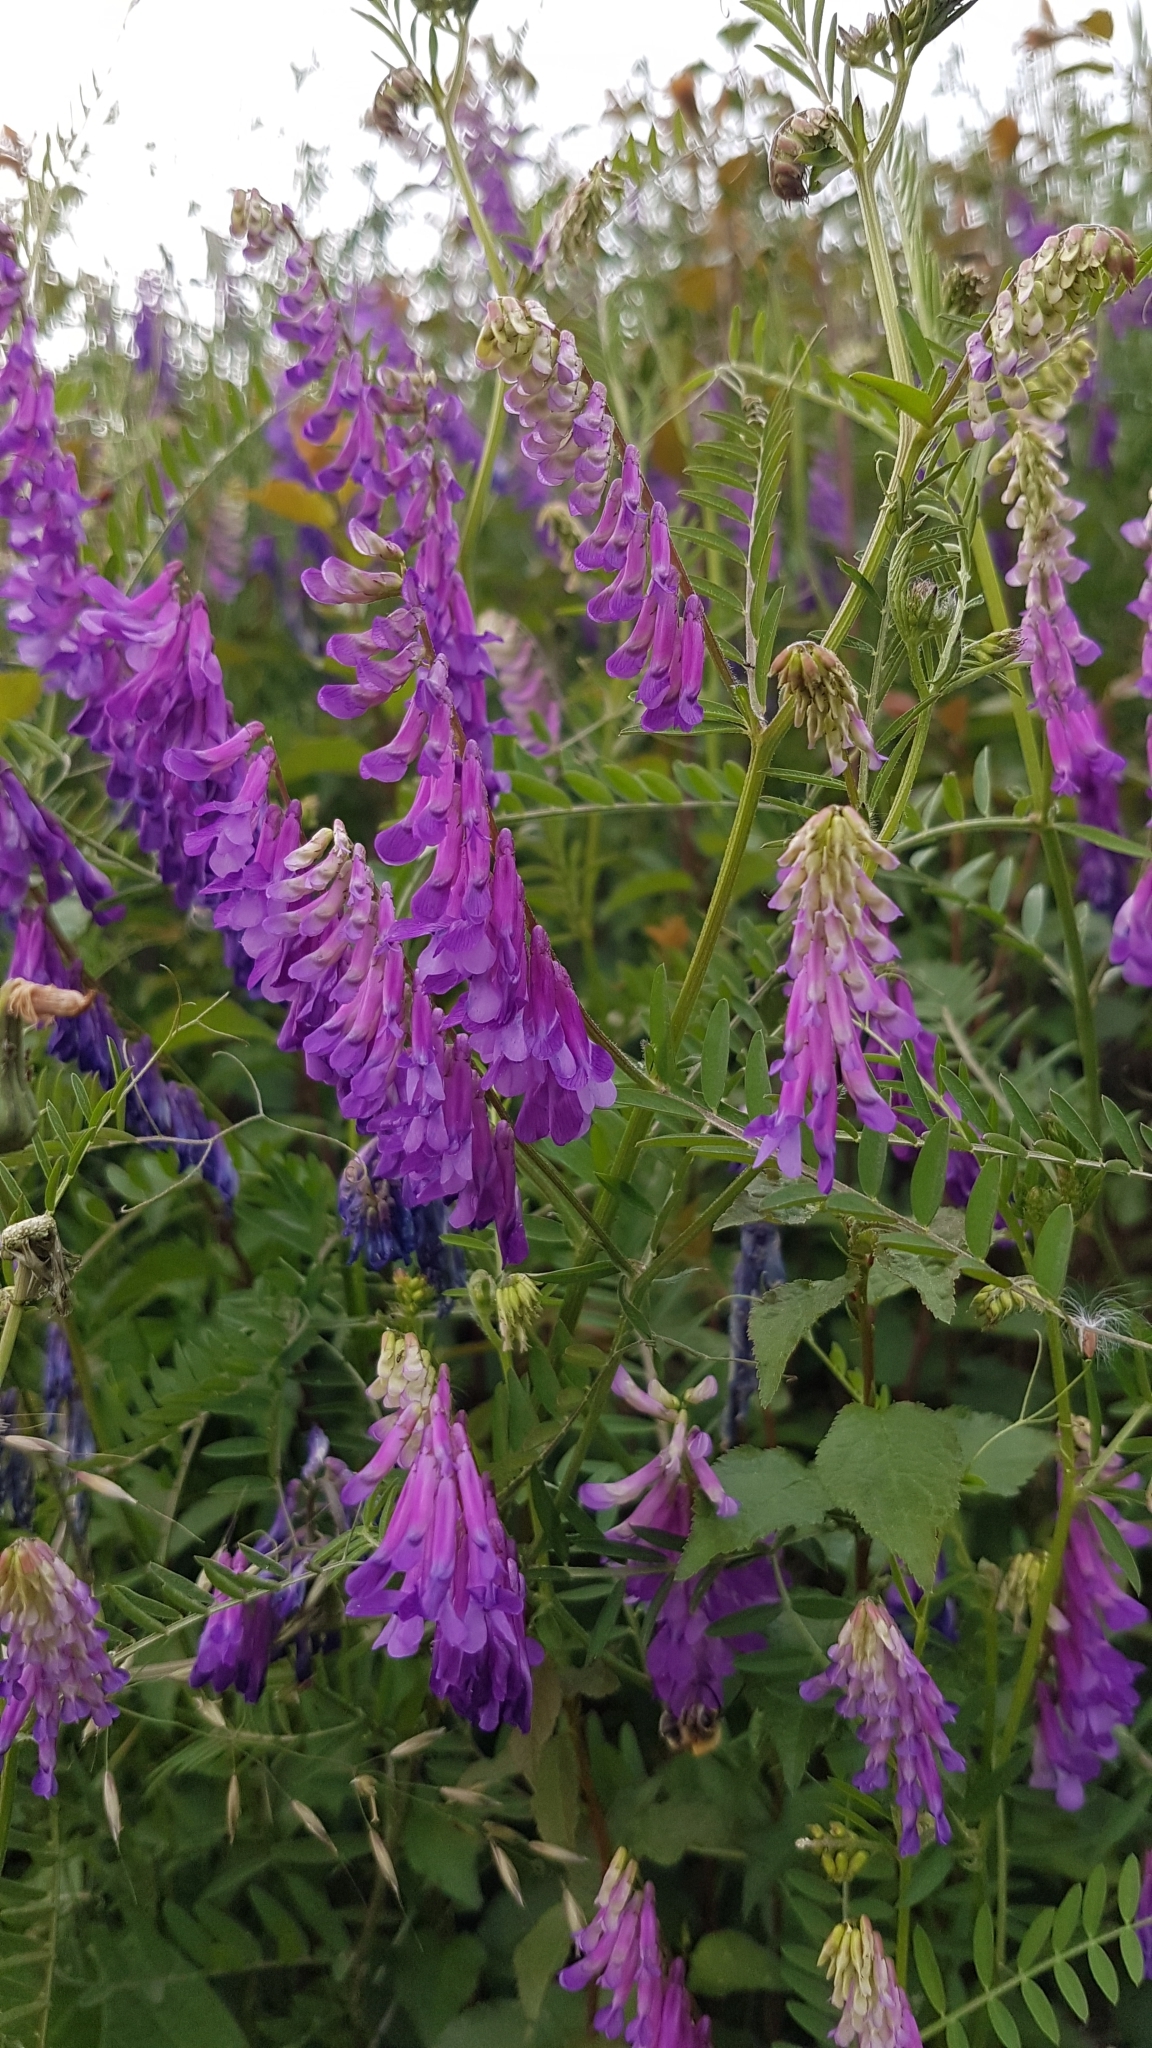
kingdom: Plantae
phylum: Tracheophyta
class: Magnoliopsida
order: Fabales
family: Fabaceae
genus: Vicia
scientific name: Vicia villosa
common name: Fodder vetch
